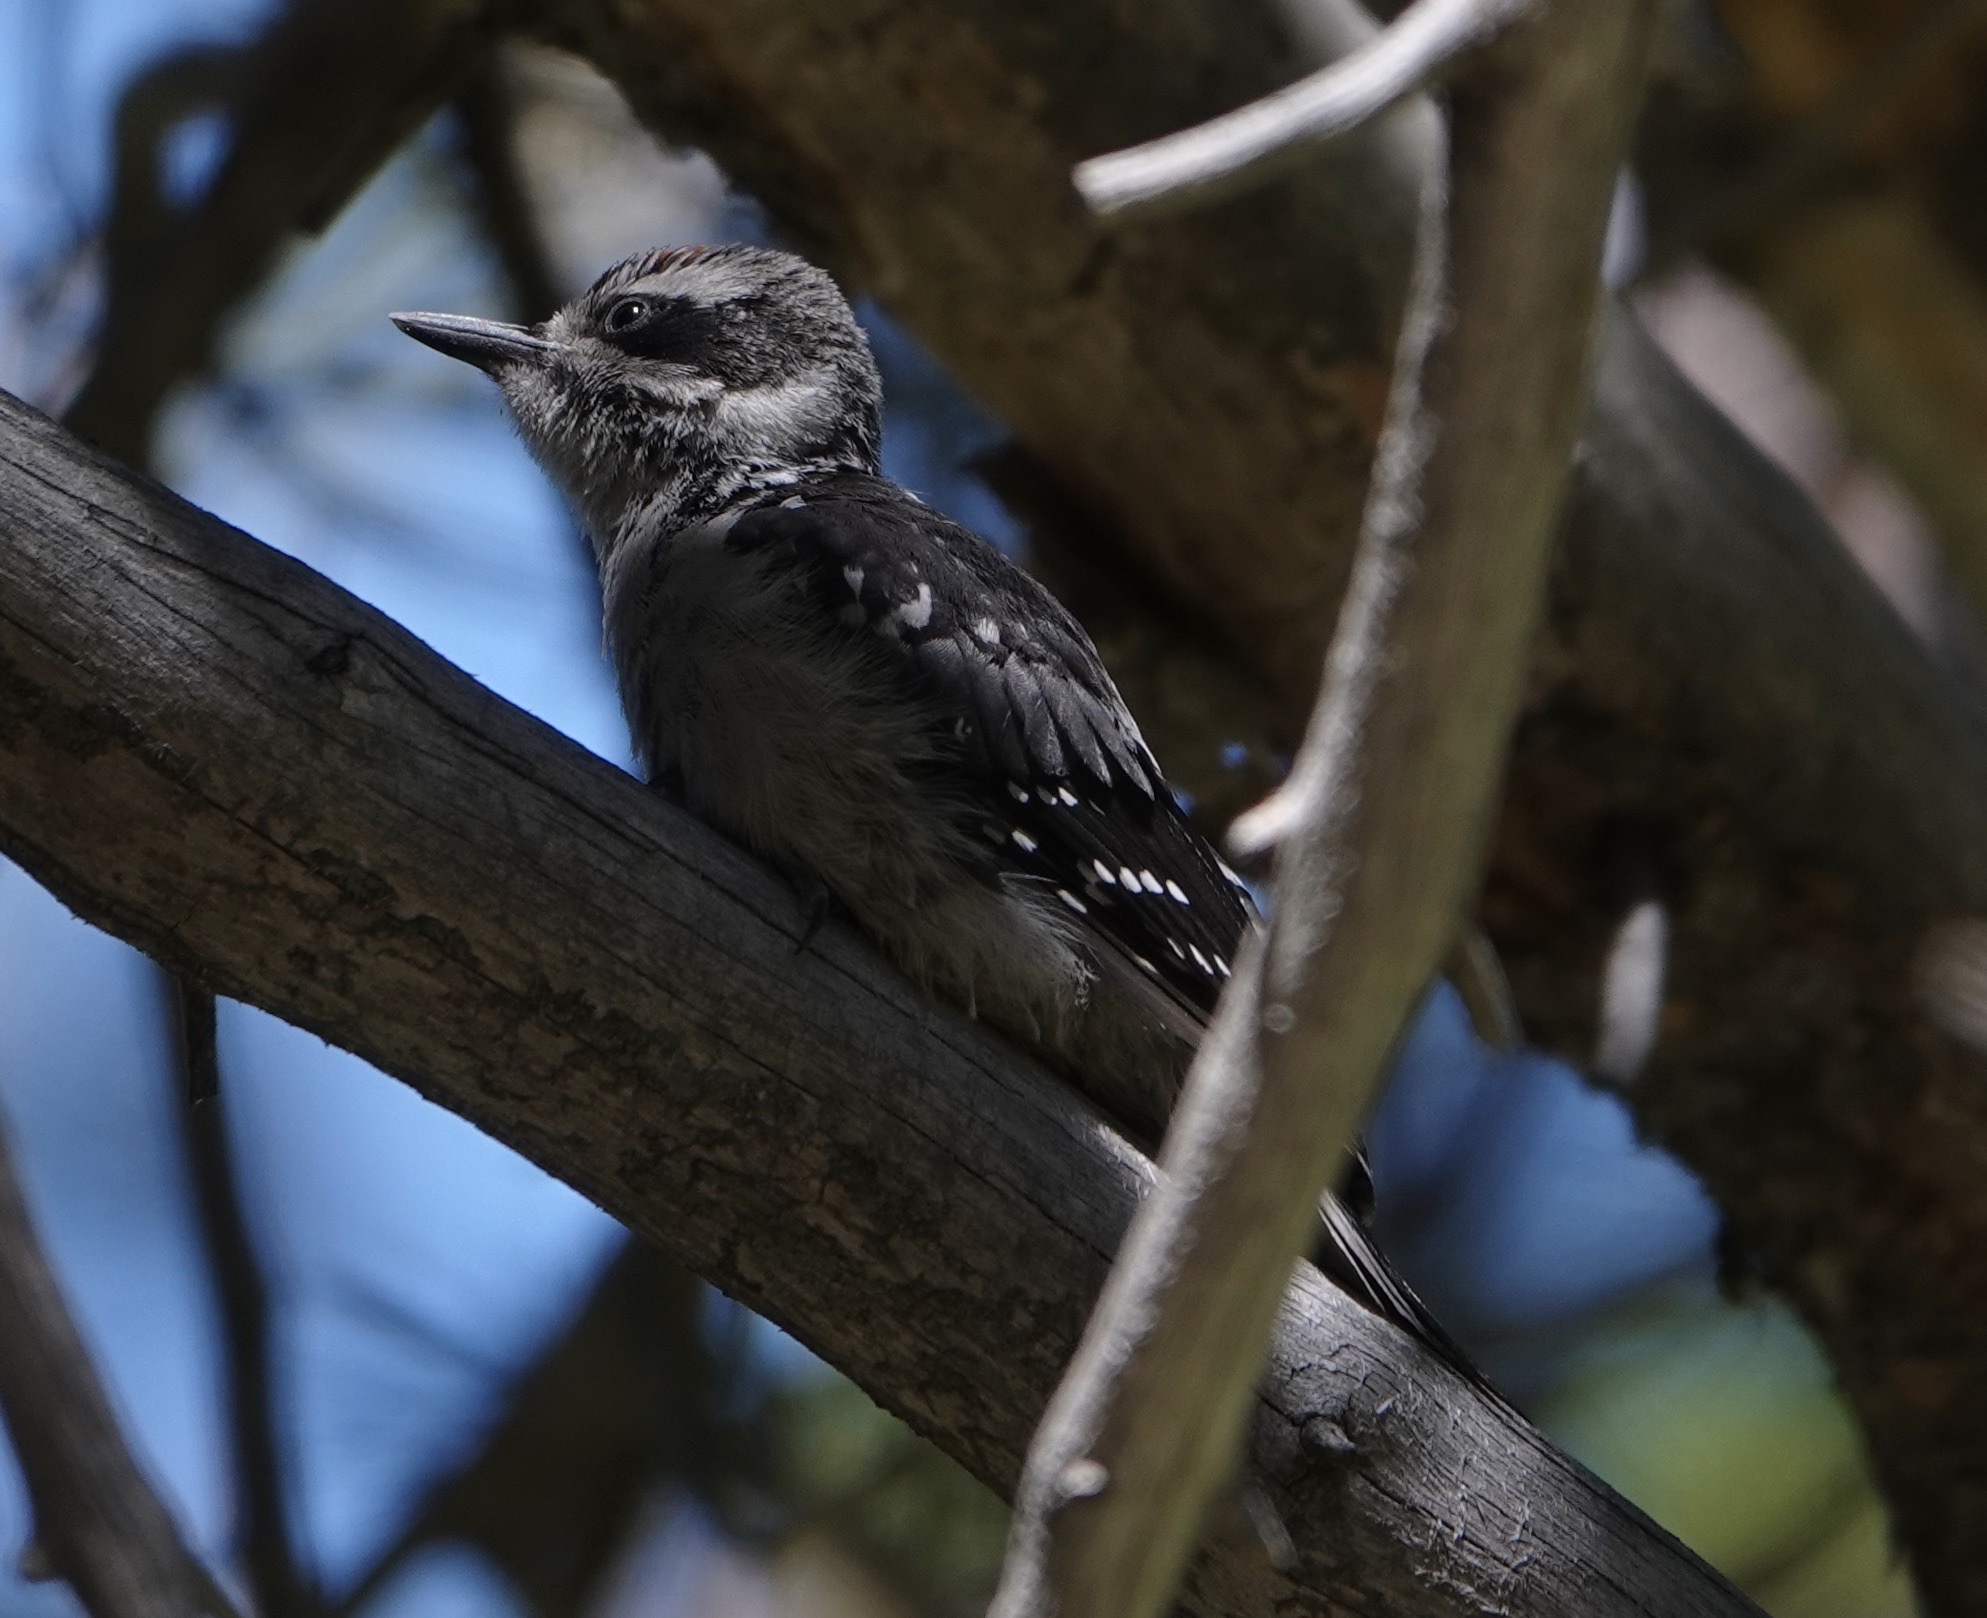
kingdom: Animalia
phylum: Chordata
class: Aves
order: Piciformes
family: Picidae
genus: Leuconotopicus
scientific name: Leuconotopicus villosus
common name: Hairy woodpecker
